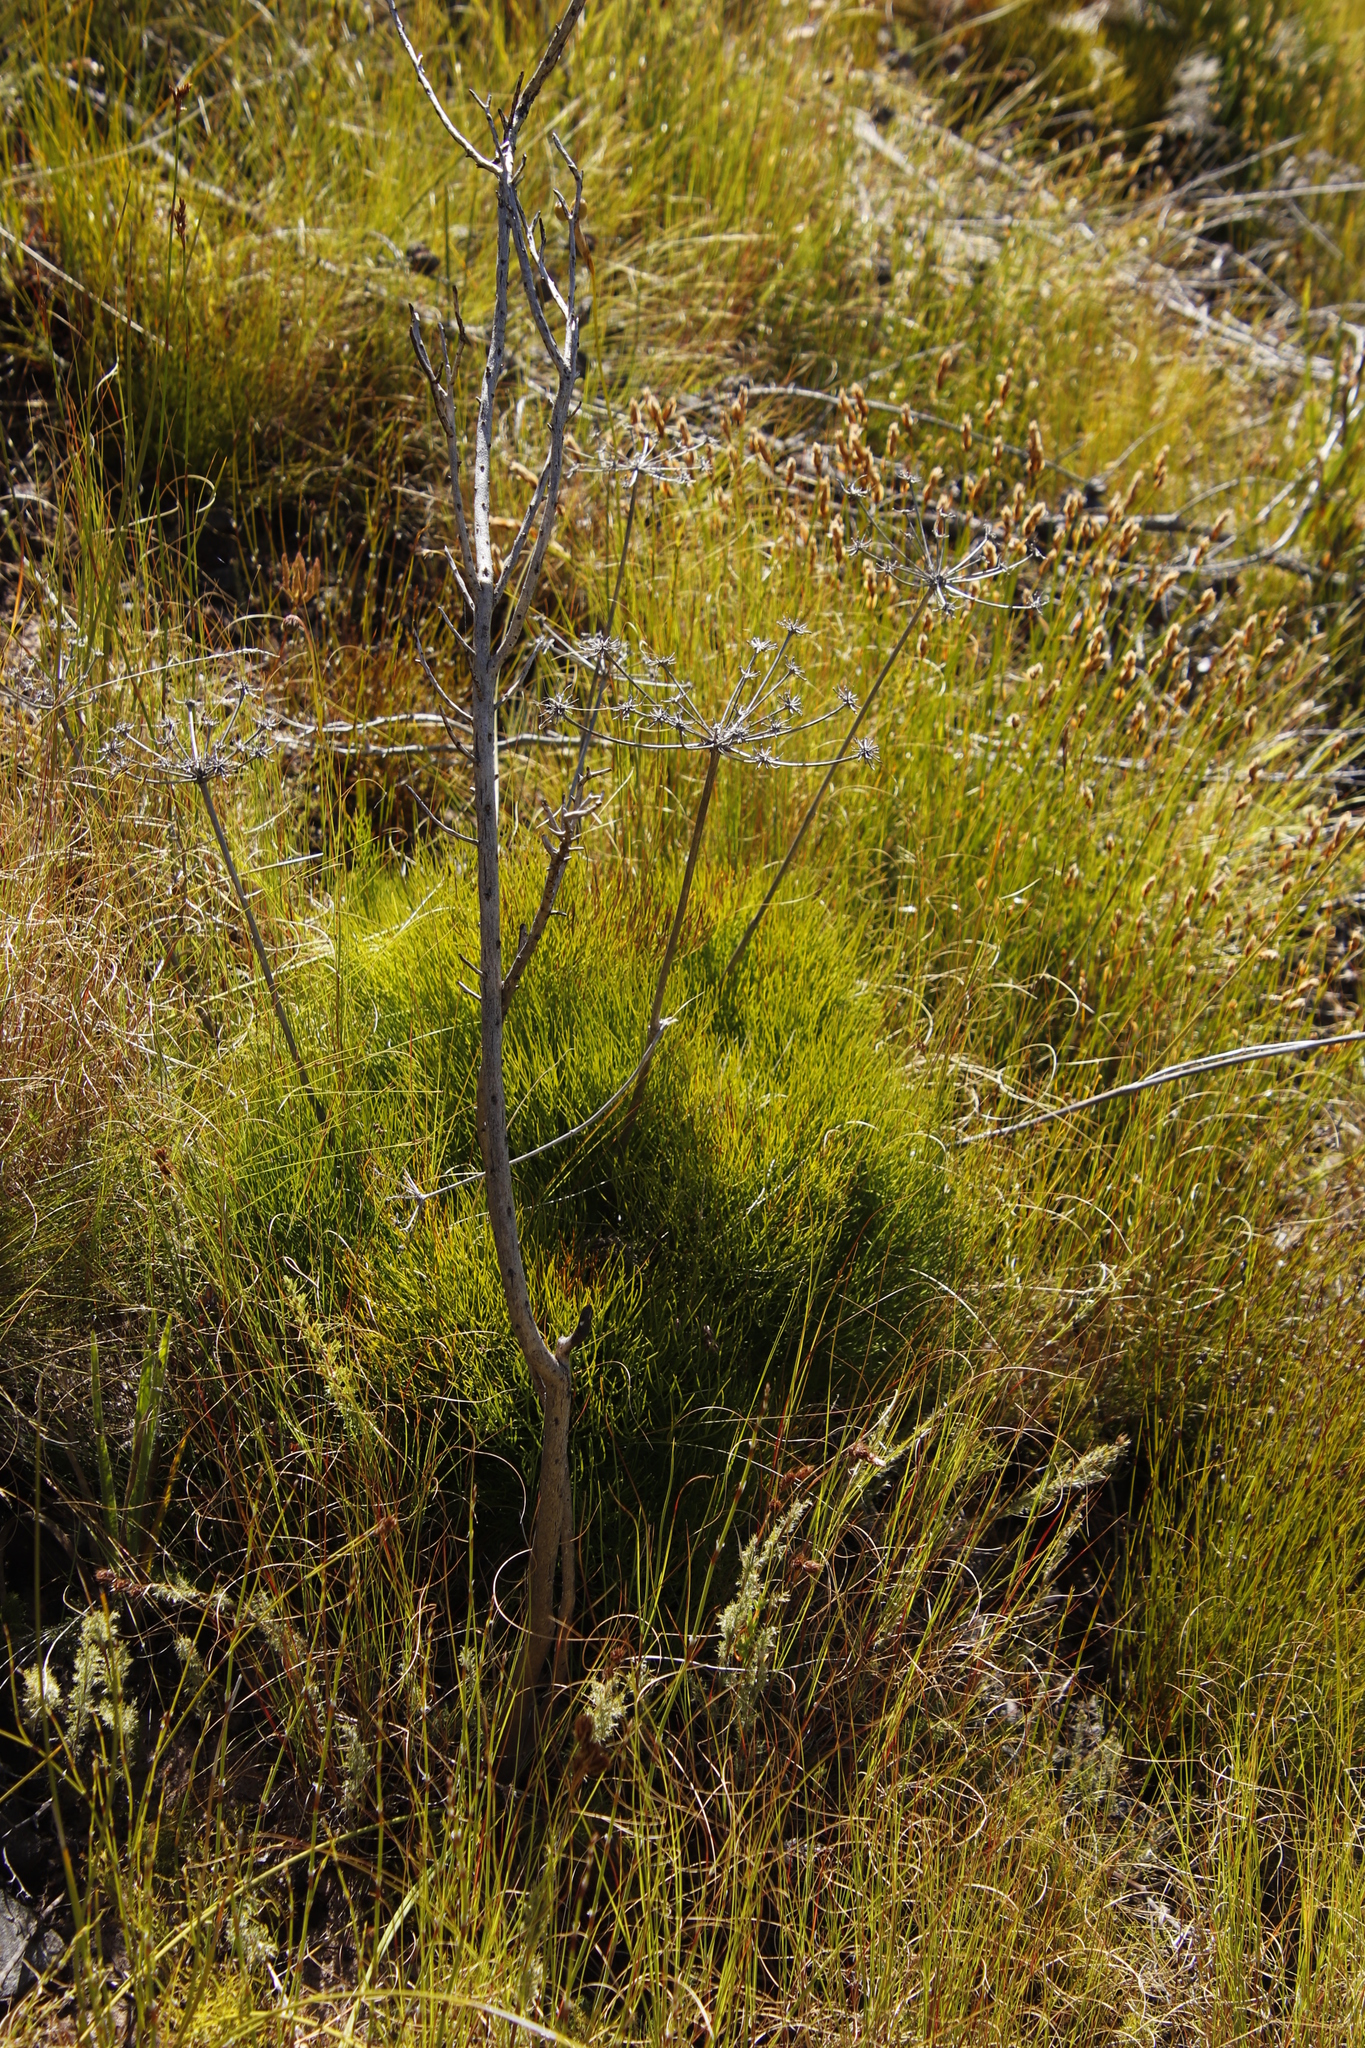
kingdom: Plantae
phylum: Tracheophyta
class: Magnoliopsida
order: Apiales
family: Apiaceae
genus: Nanobubon
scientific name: Nanobubon strictum
